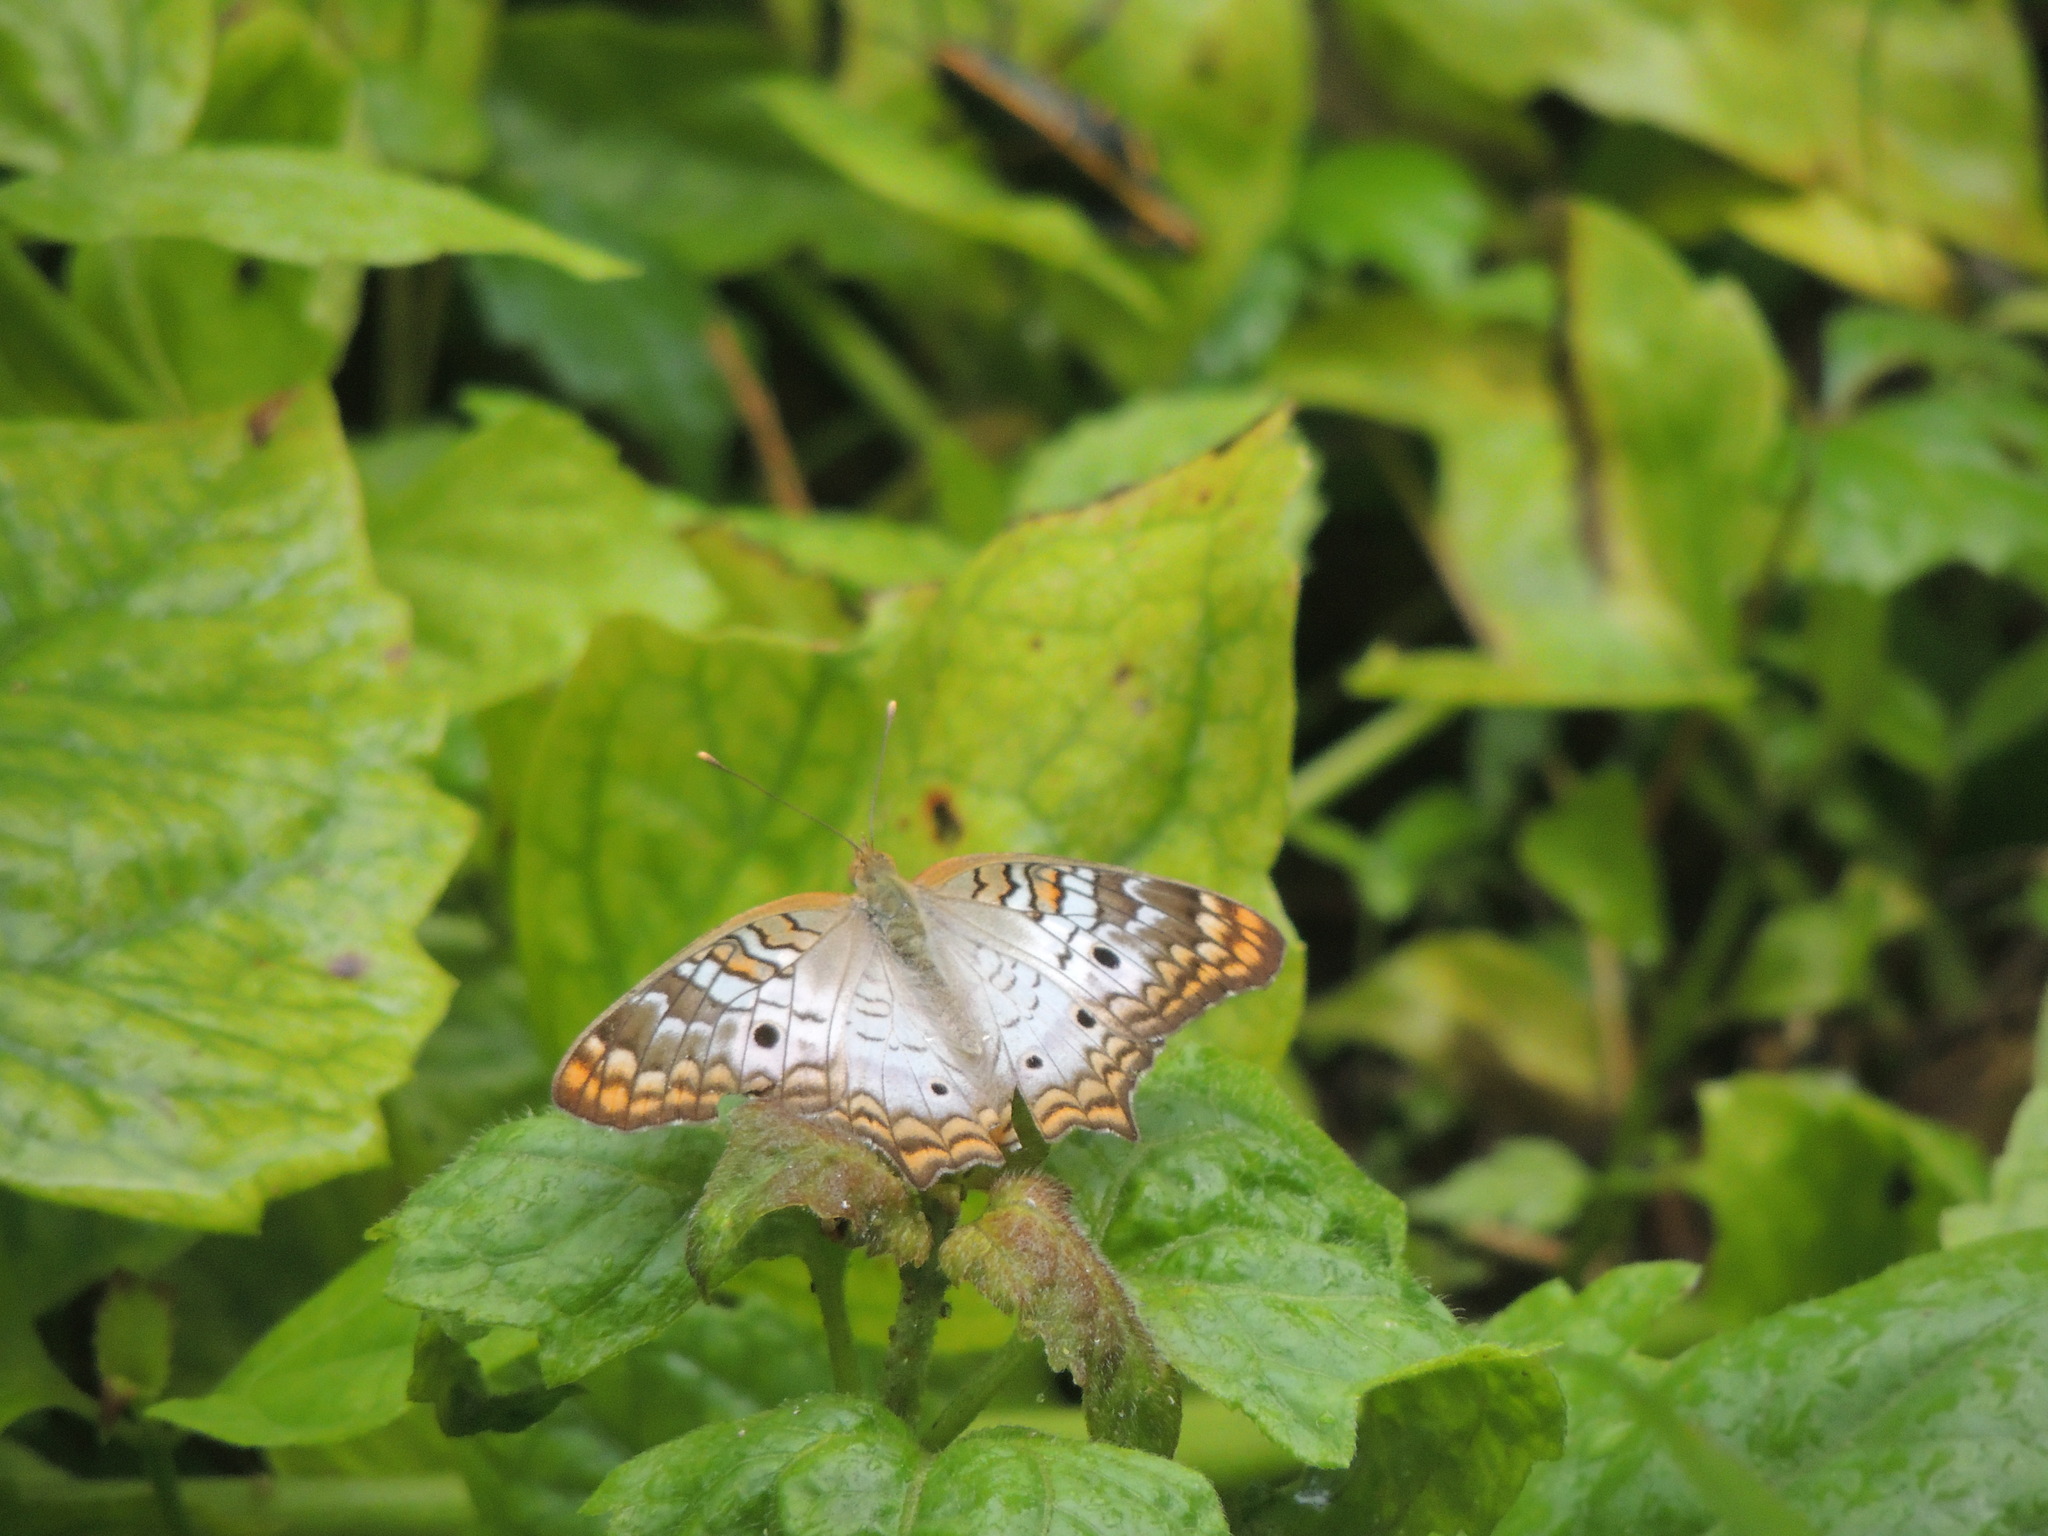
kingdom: Animalia
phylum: Arthropoda
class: Insecta
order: Lepidoptera
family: Nymphalidae
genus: Anartia
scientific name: Anartia jatrophae
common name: White peacock
